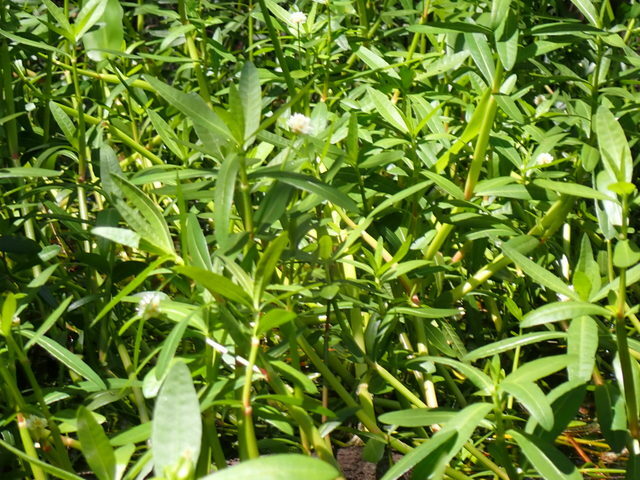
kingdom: Plantae
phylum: Tracheophyta
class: Magnoliopsida
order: Caryophyllales
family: Amaranthaceae
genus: Alternanthera
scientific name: Alternanthera philoxeroides
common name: Alligatorweed
